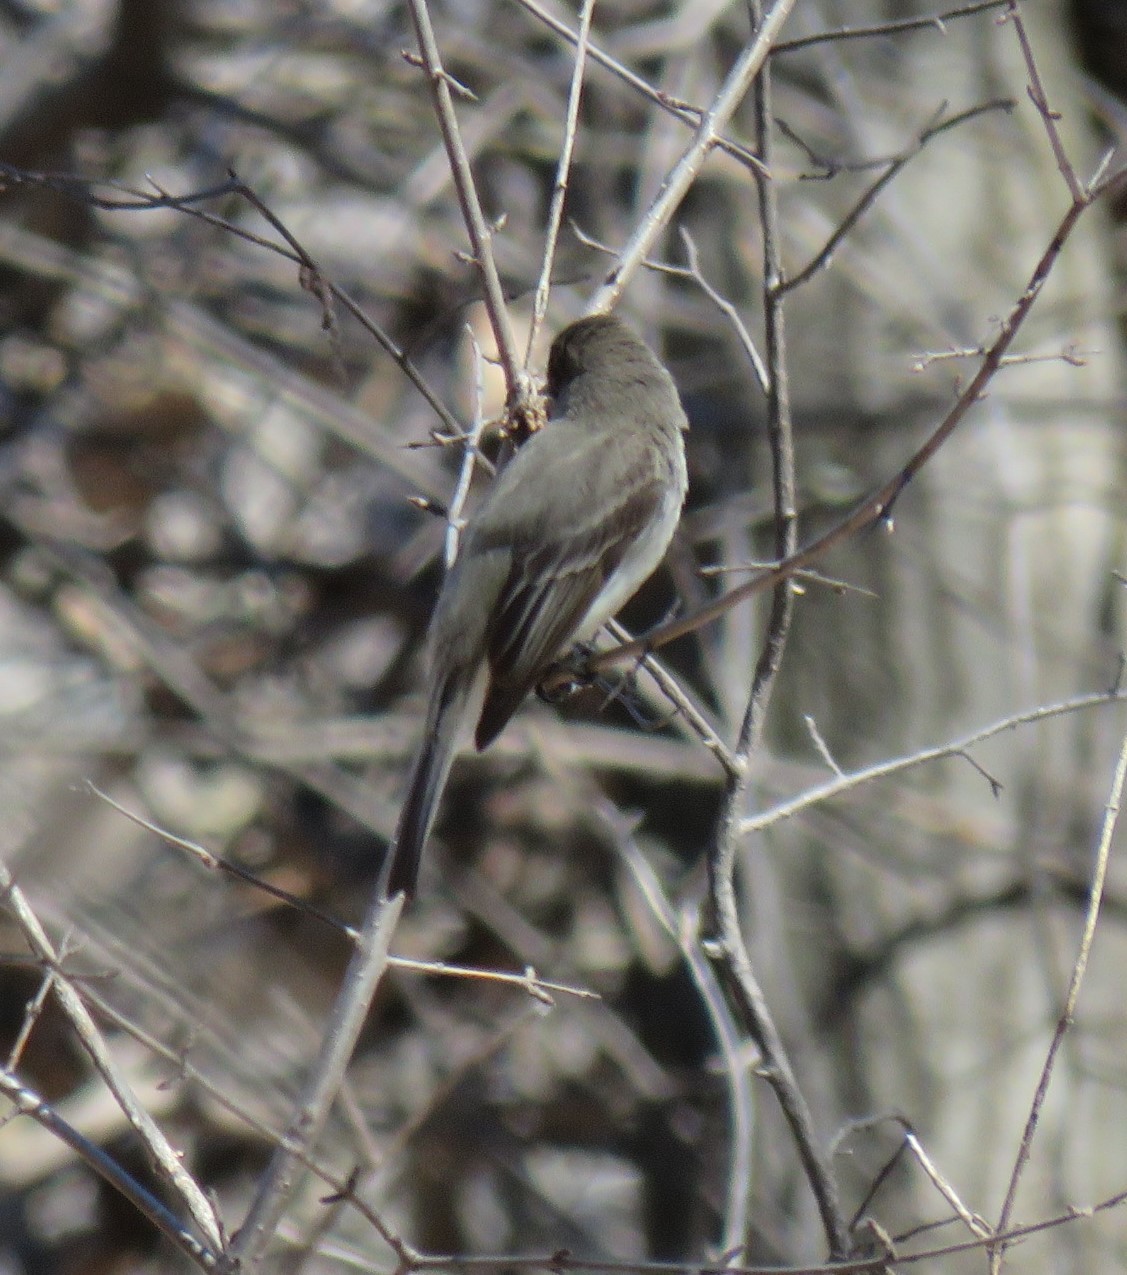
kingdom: Animalia
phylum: Chordata
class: Aves
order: Passeriformes
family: Tyrannidae
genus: Sayornis
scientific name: Sayornis phoebe
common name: Eastern phoebe
